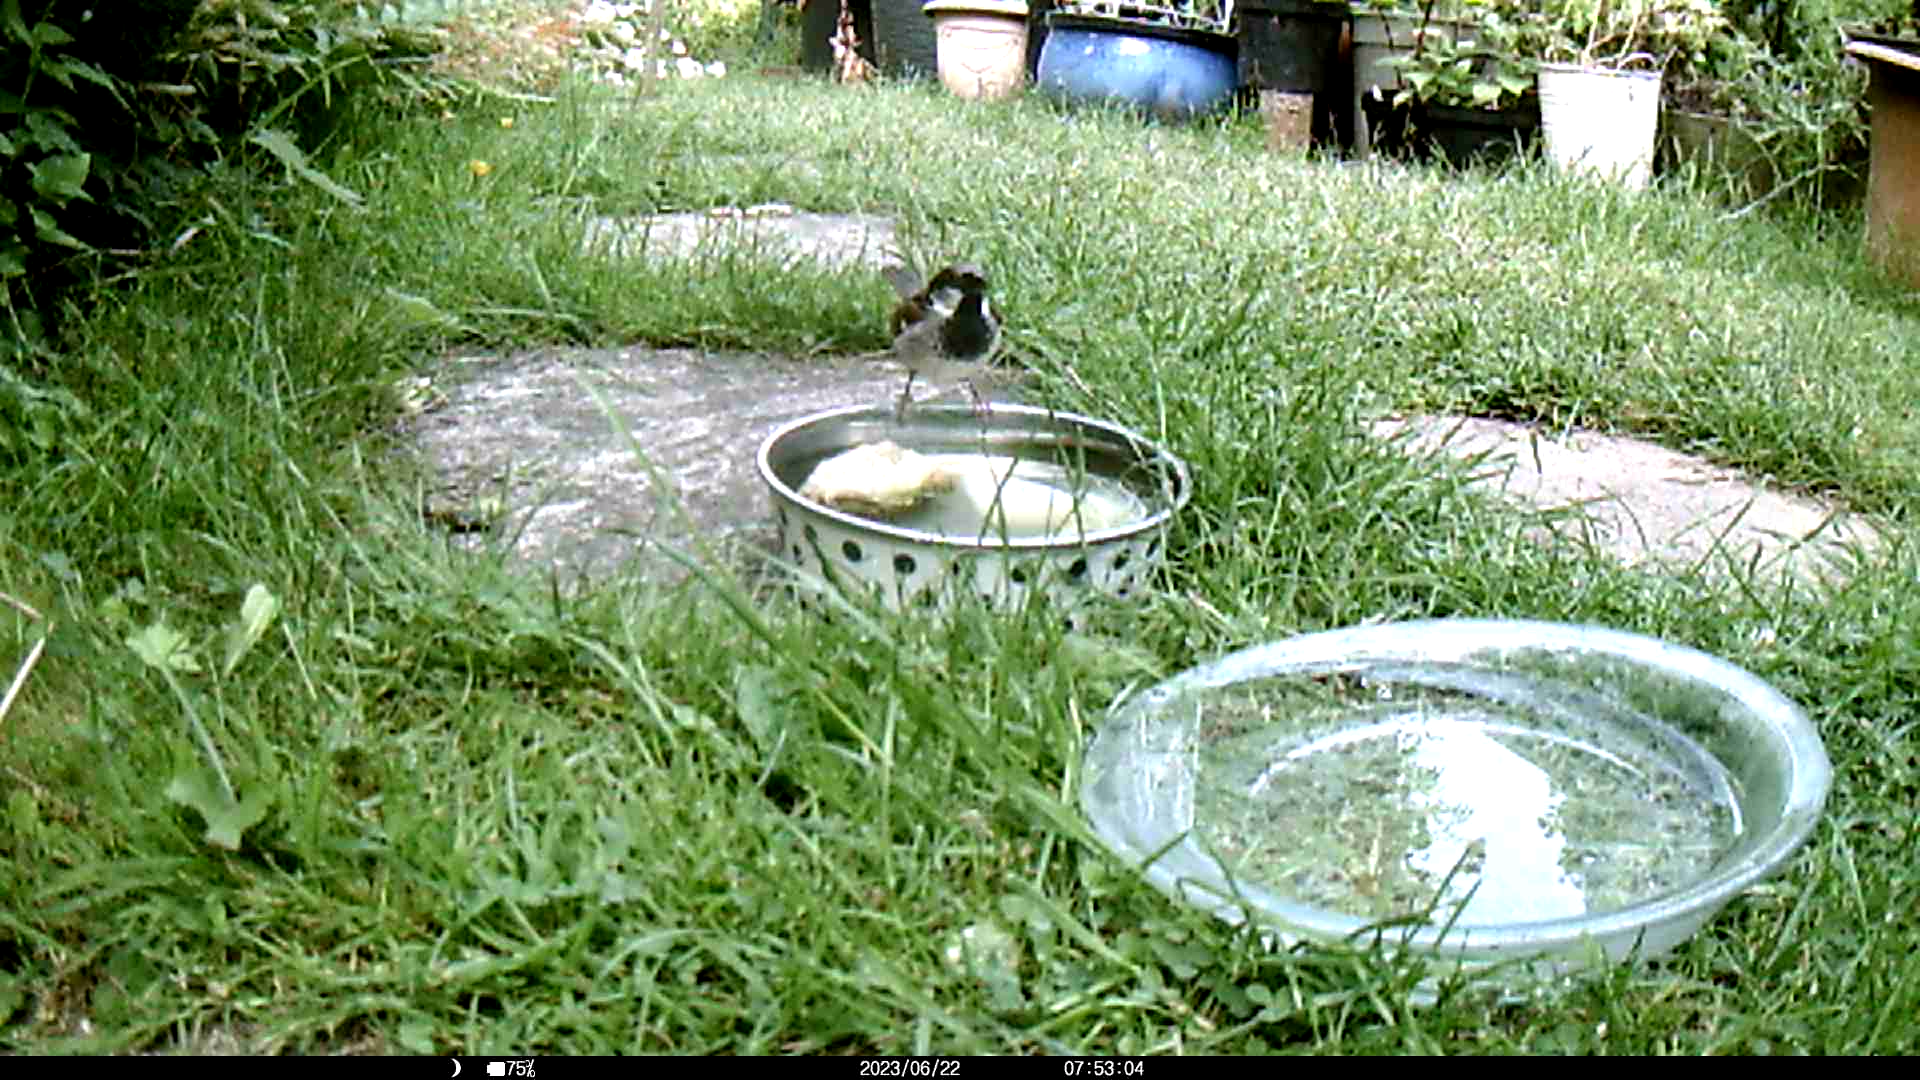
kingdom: Animalia
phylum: Chordata
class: Aves
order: Passeriformes
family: Passeridae
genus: Passer
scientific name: Passer domesticus
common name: House sparrow
